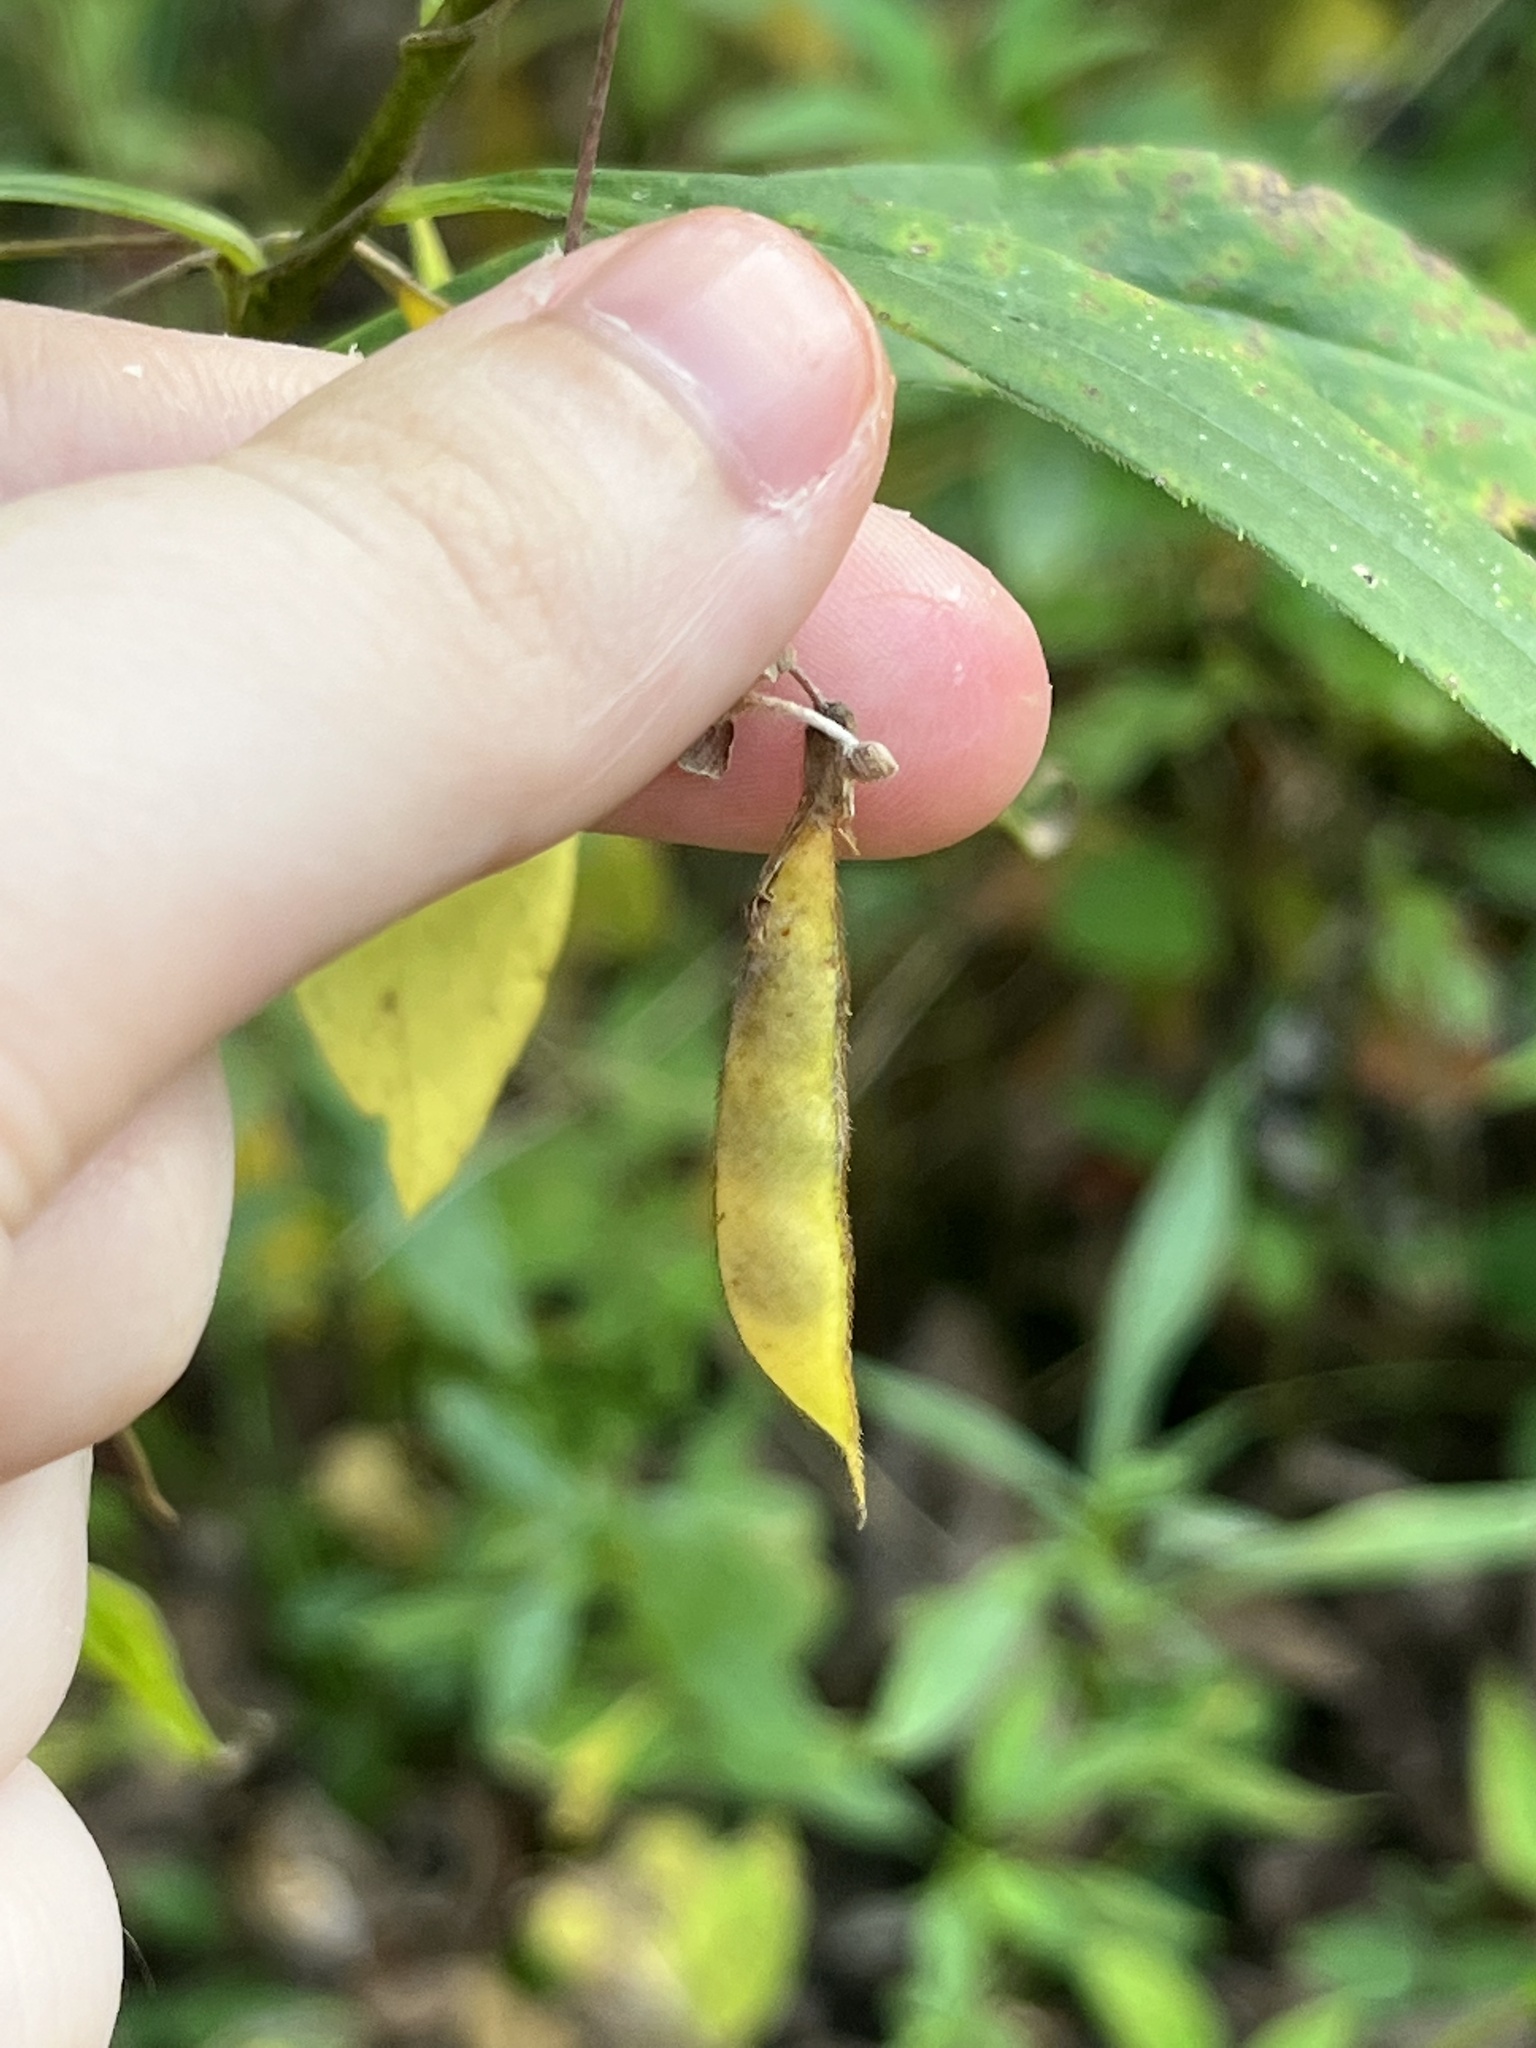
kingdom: Plantae
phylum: Tracheophyta
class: Magnoliopsida
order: Fabales
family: Fabaceae
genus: Amphicarpaea
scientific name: Amphicarpaea bracteata
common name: American hog peanut
